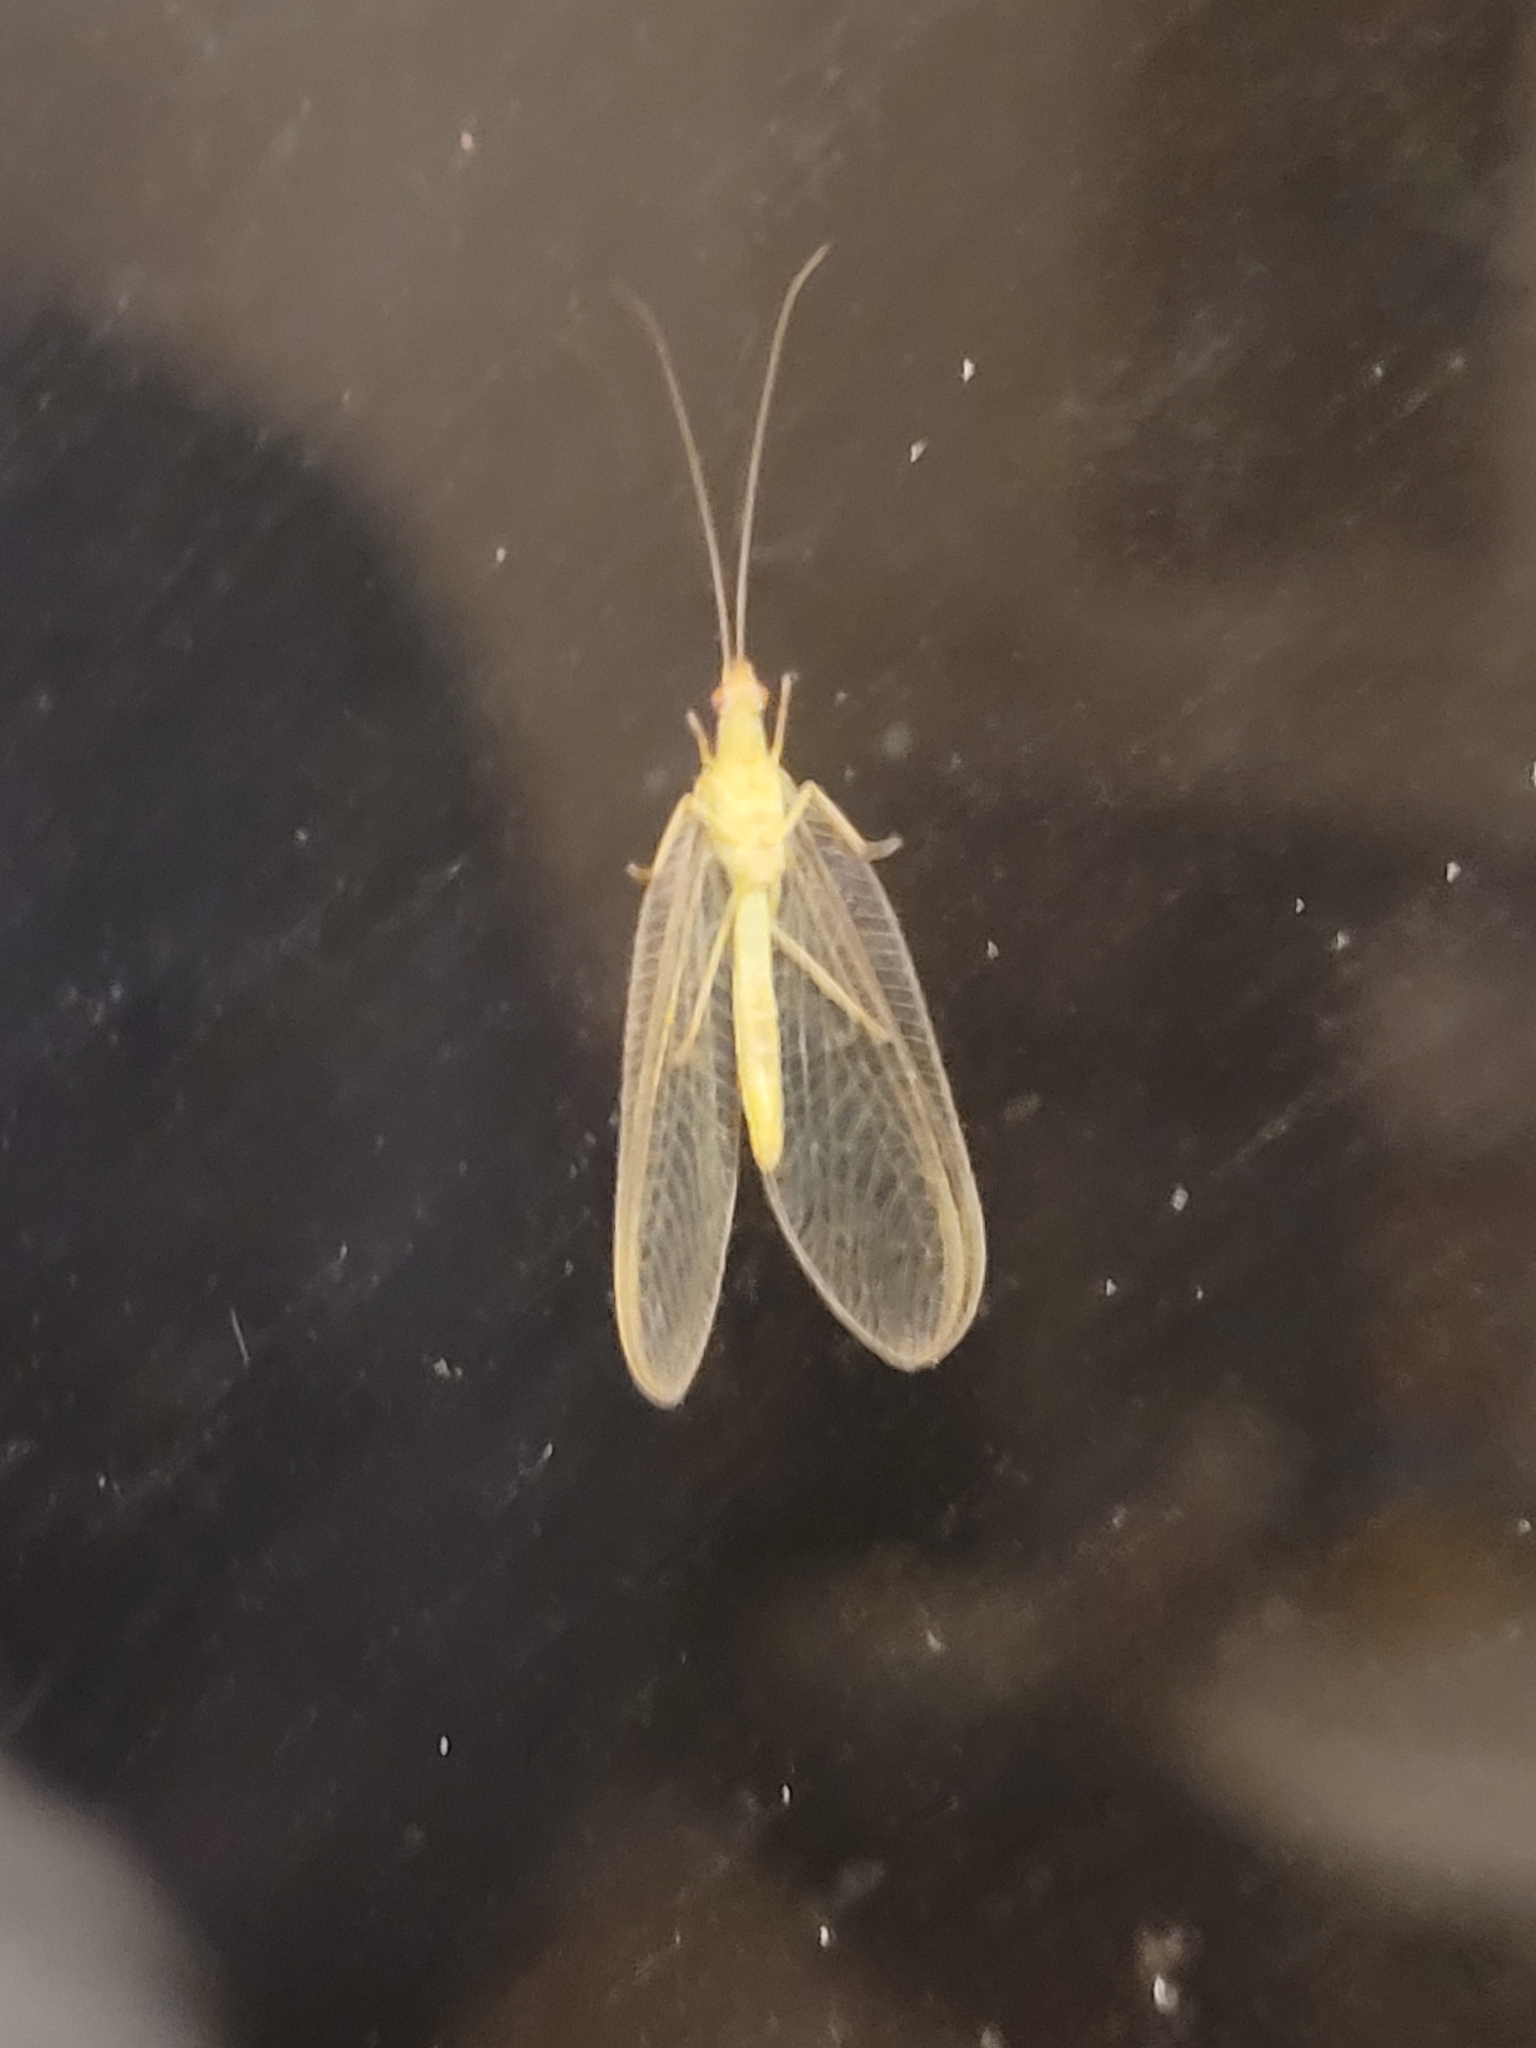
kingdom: Animalia
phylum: Arthropoda
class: Insecta
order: Neuroptera
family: Chrysopidae
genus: Chrysoperla
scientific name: Chrysoperla carnea
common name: Common green lacewing
